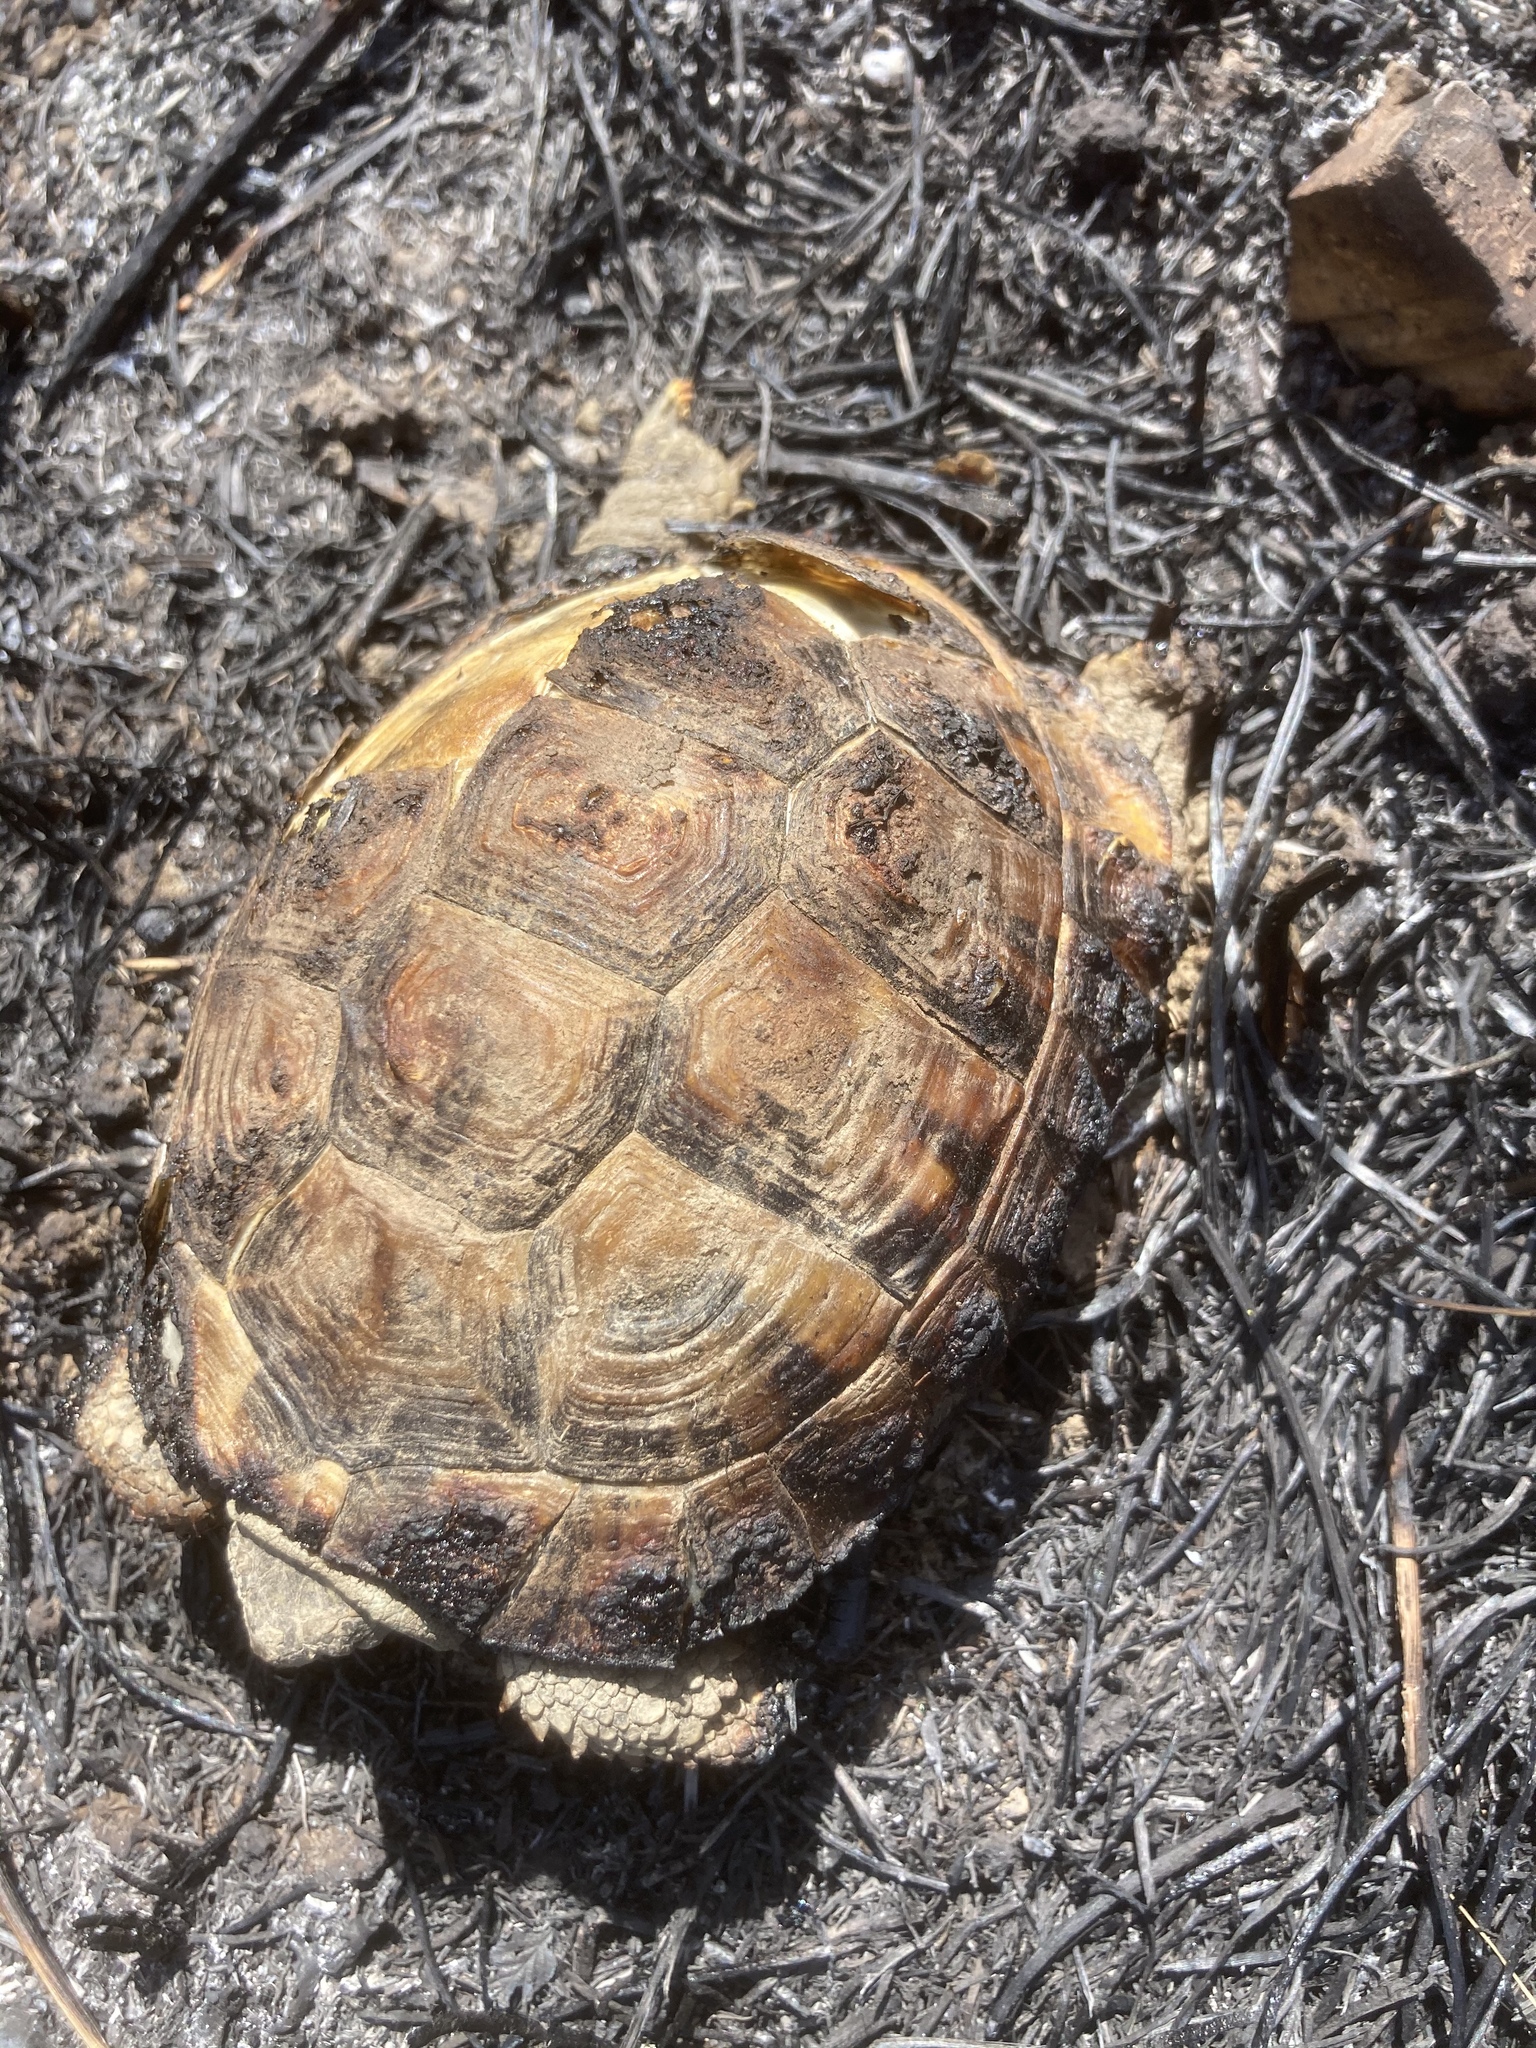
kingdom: Animalia
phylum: Chordata
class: Testudines
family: Testudinidae
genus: Testudo
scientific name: Testudo hermanni
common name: Hermann's tortoise
